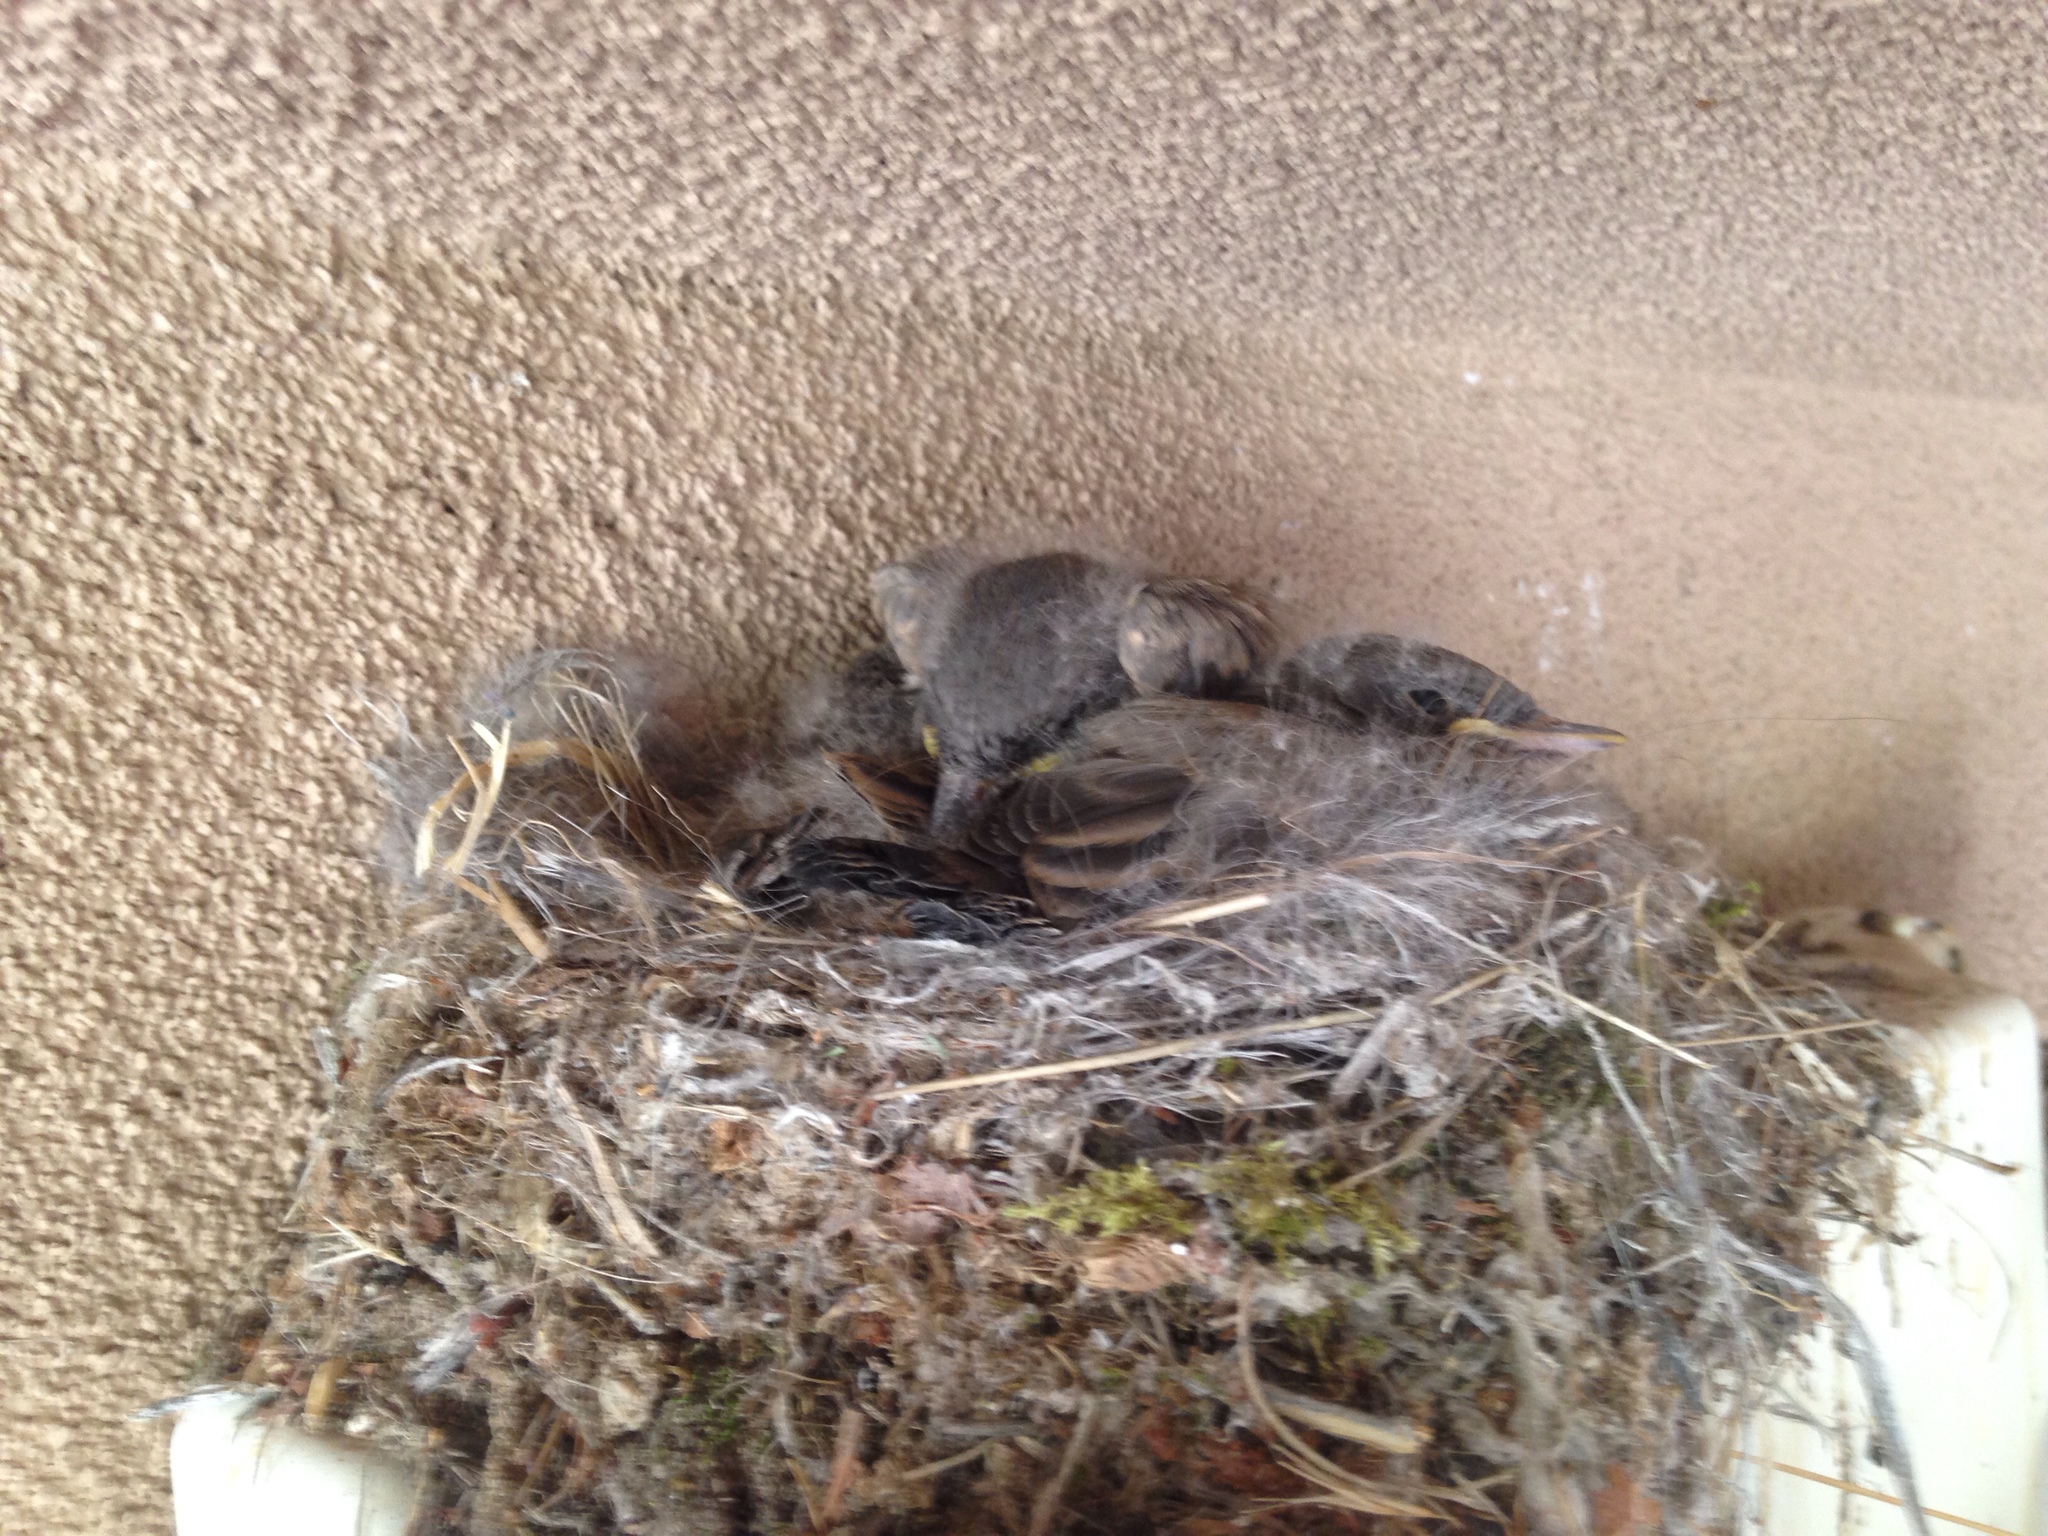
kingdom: Animalia
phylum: Chordata
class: Aves
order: Passeriformes
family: Tyrannidae
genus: Sayornis
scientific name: Sayornis saya
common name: Say's phoebe
